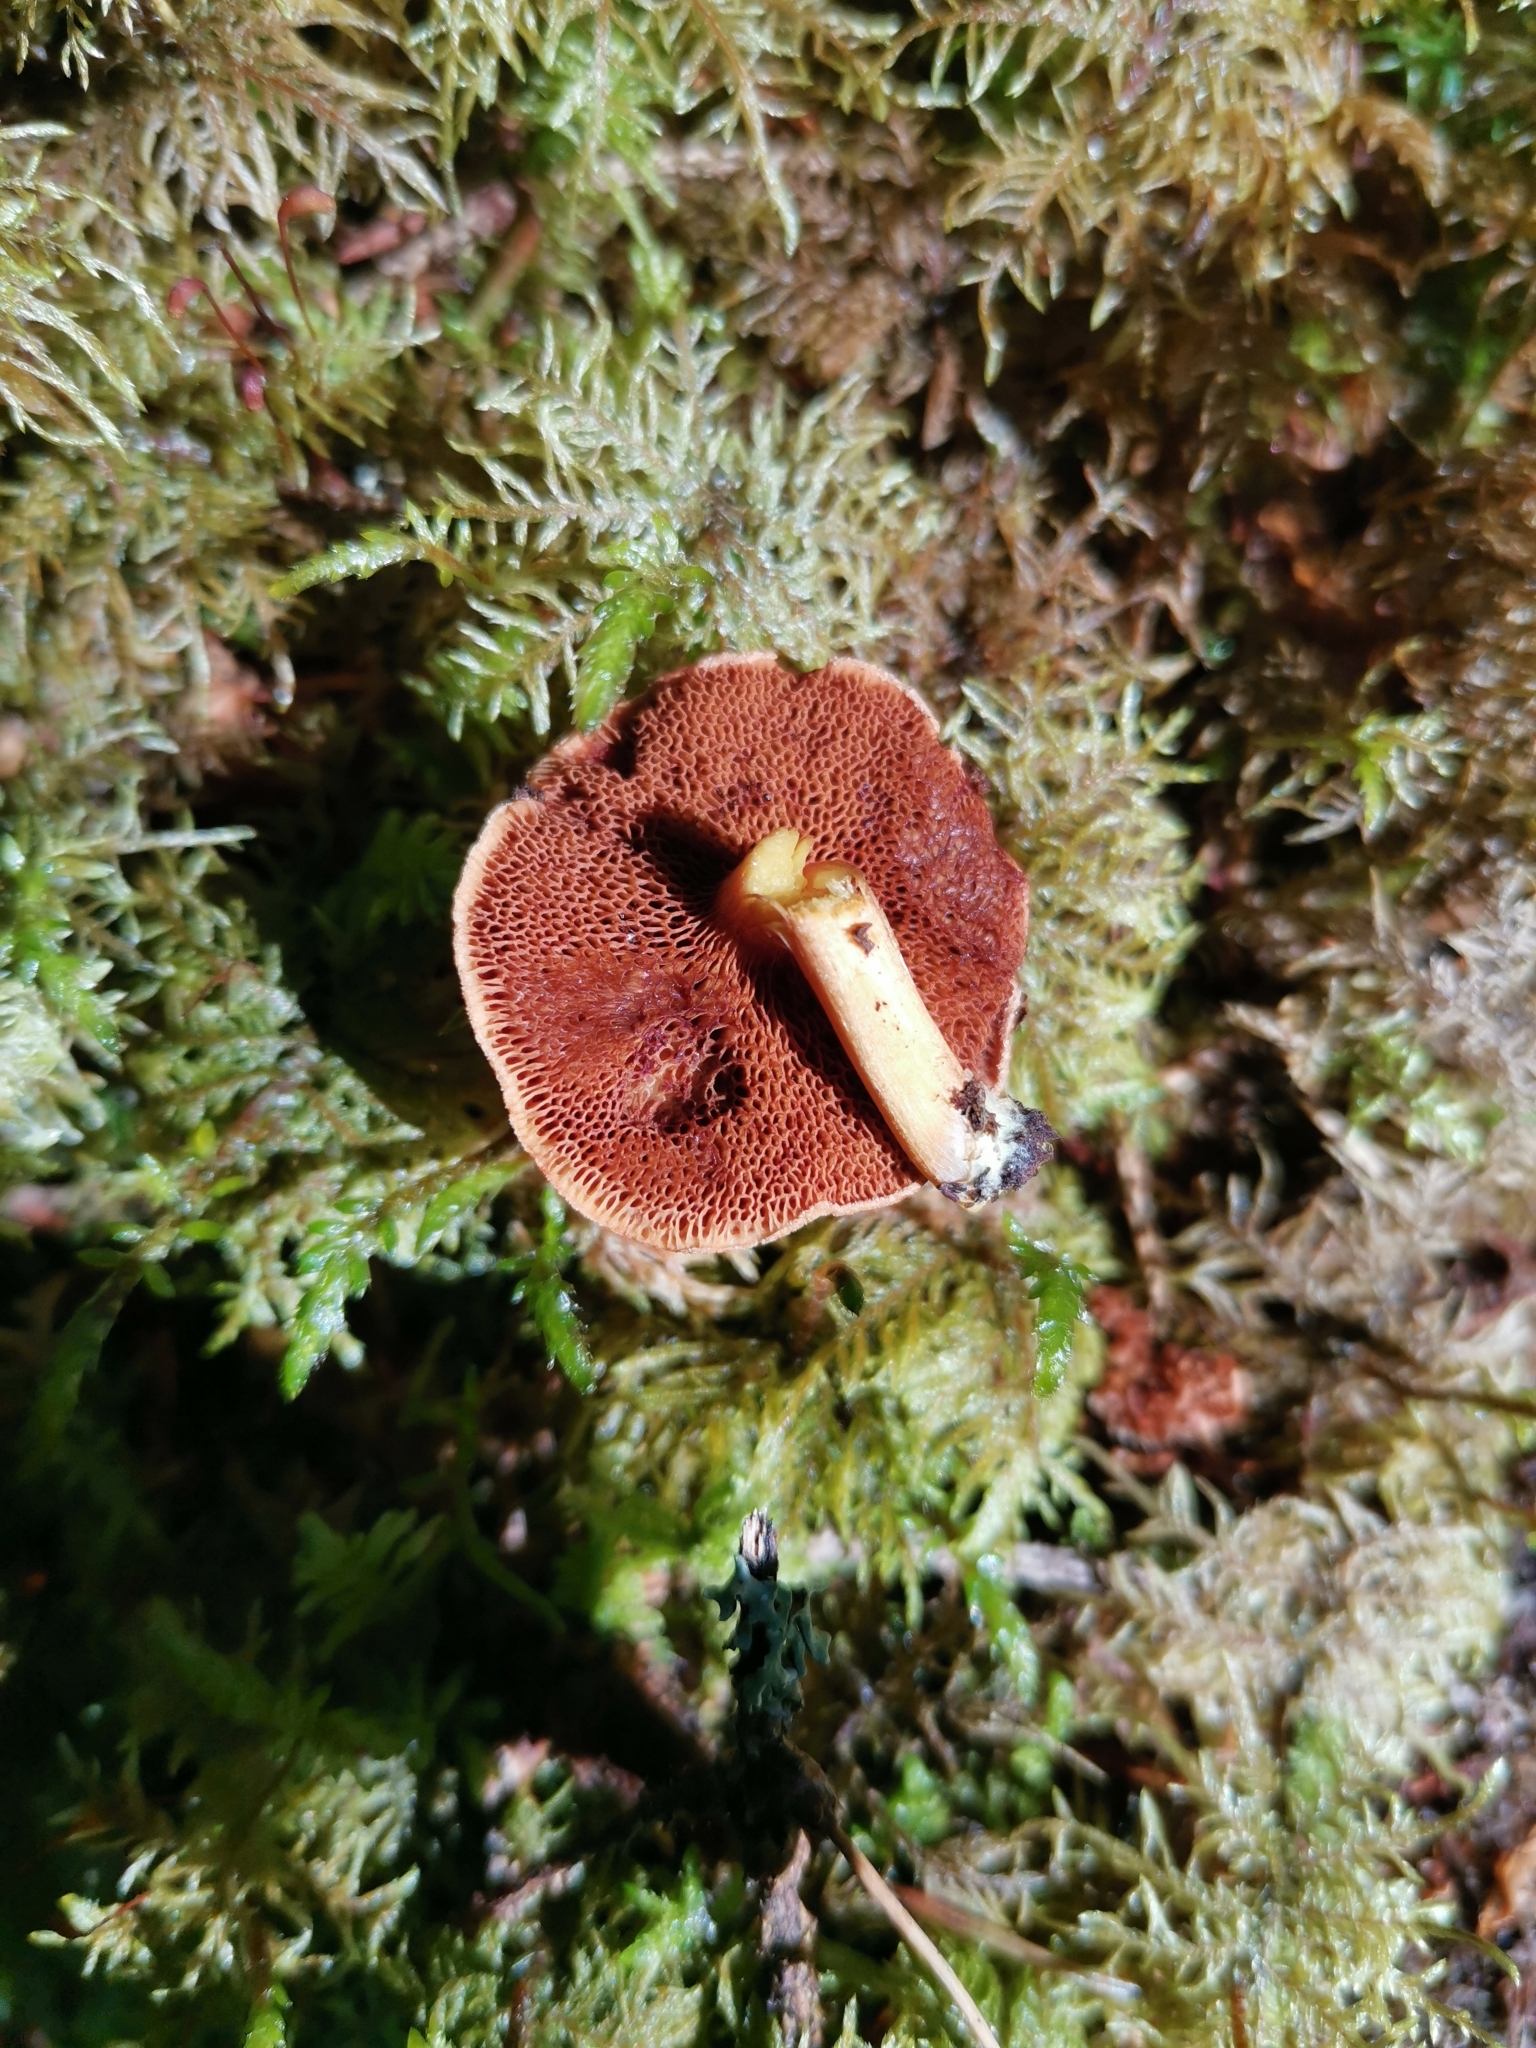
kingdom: Fungi
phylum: Basidiomycota
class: Agaricomycetes
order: Boletales
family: Boletaceae
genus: Chalciporus
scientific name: Chalciporus piperatus
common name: Peppery bolete
